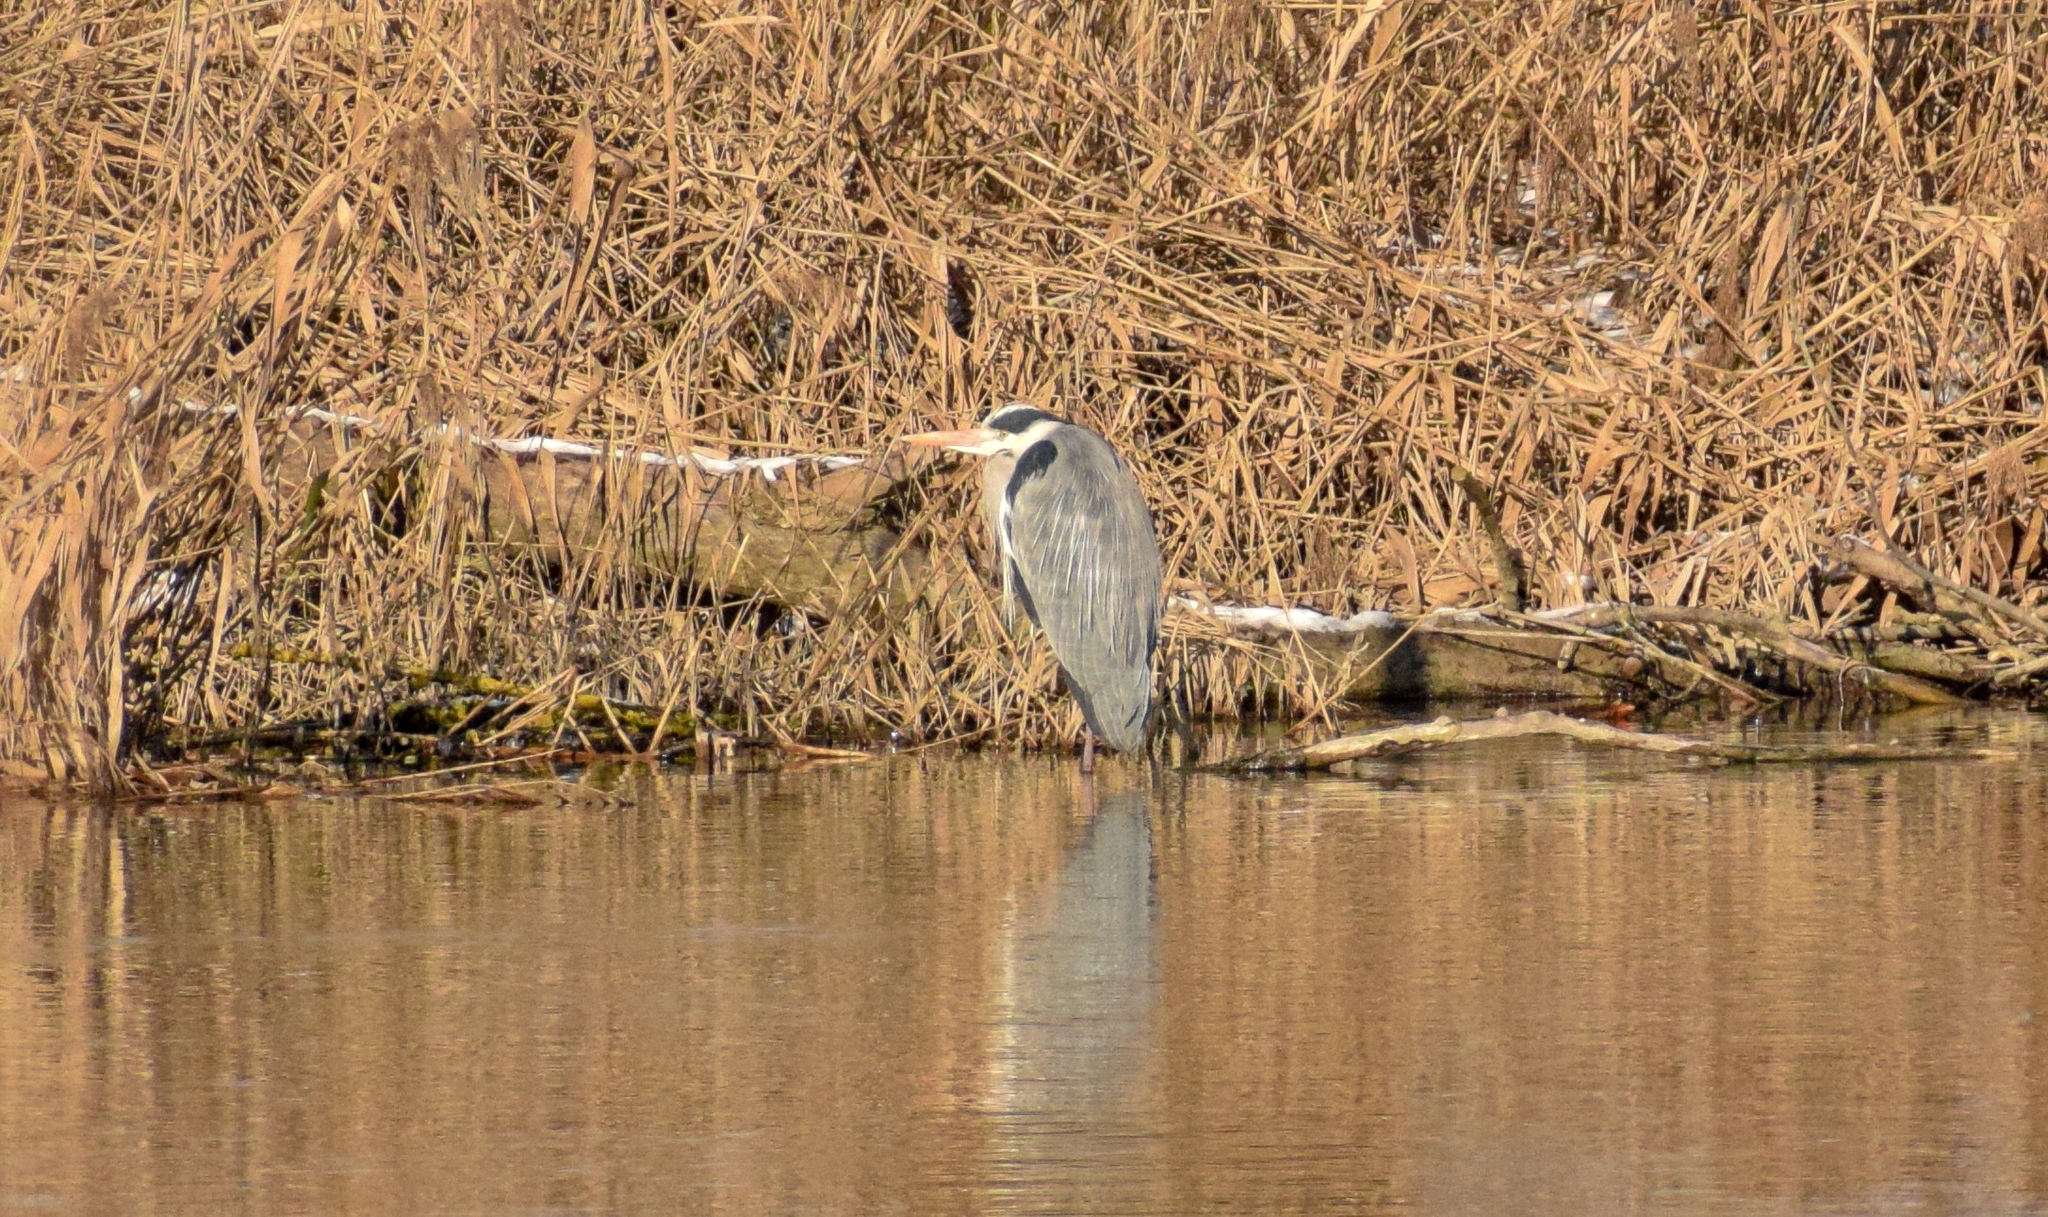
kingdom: Animalia
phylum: Chordata
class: Aves
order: Pelecaniformes
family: Ardeidae
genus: Ardea
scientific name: Ardea cinerea
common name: Grey heron
